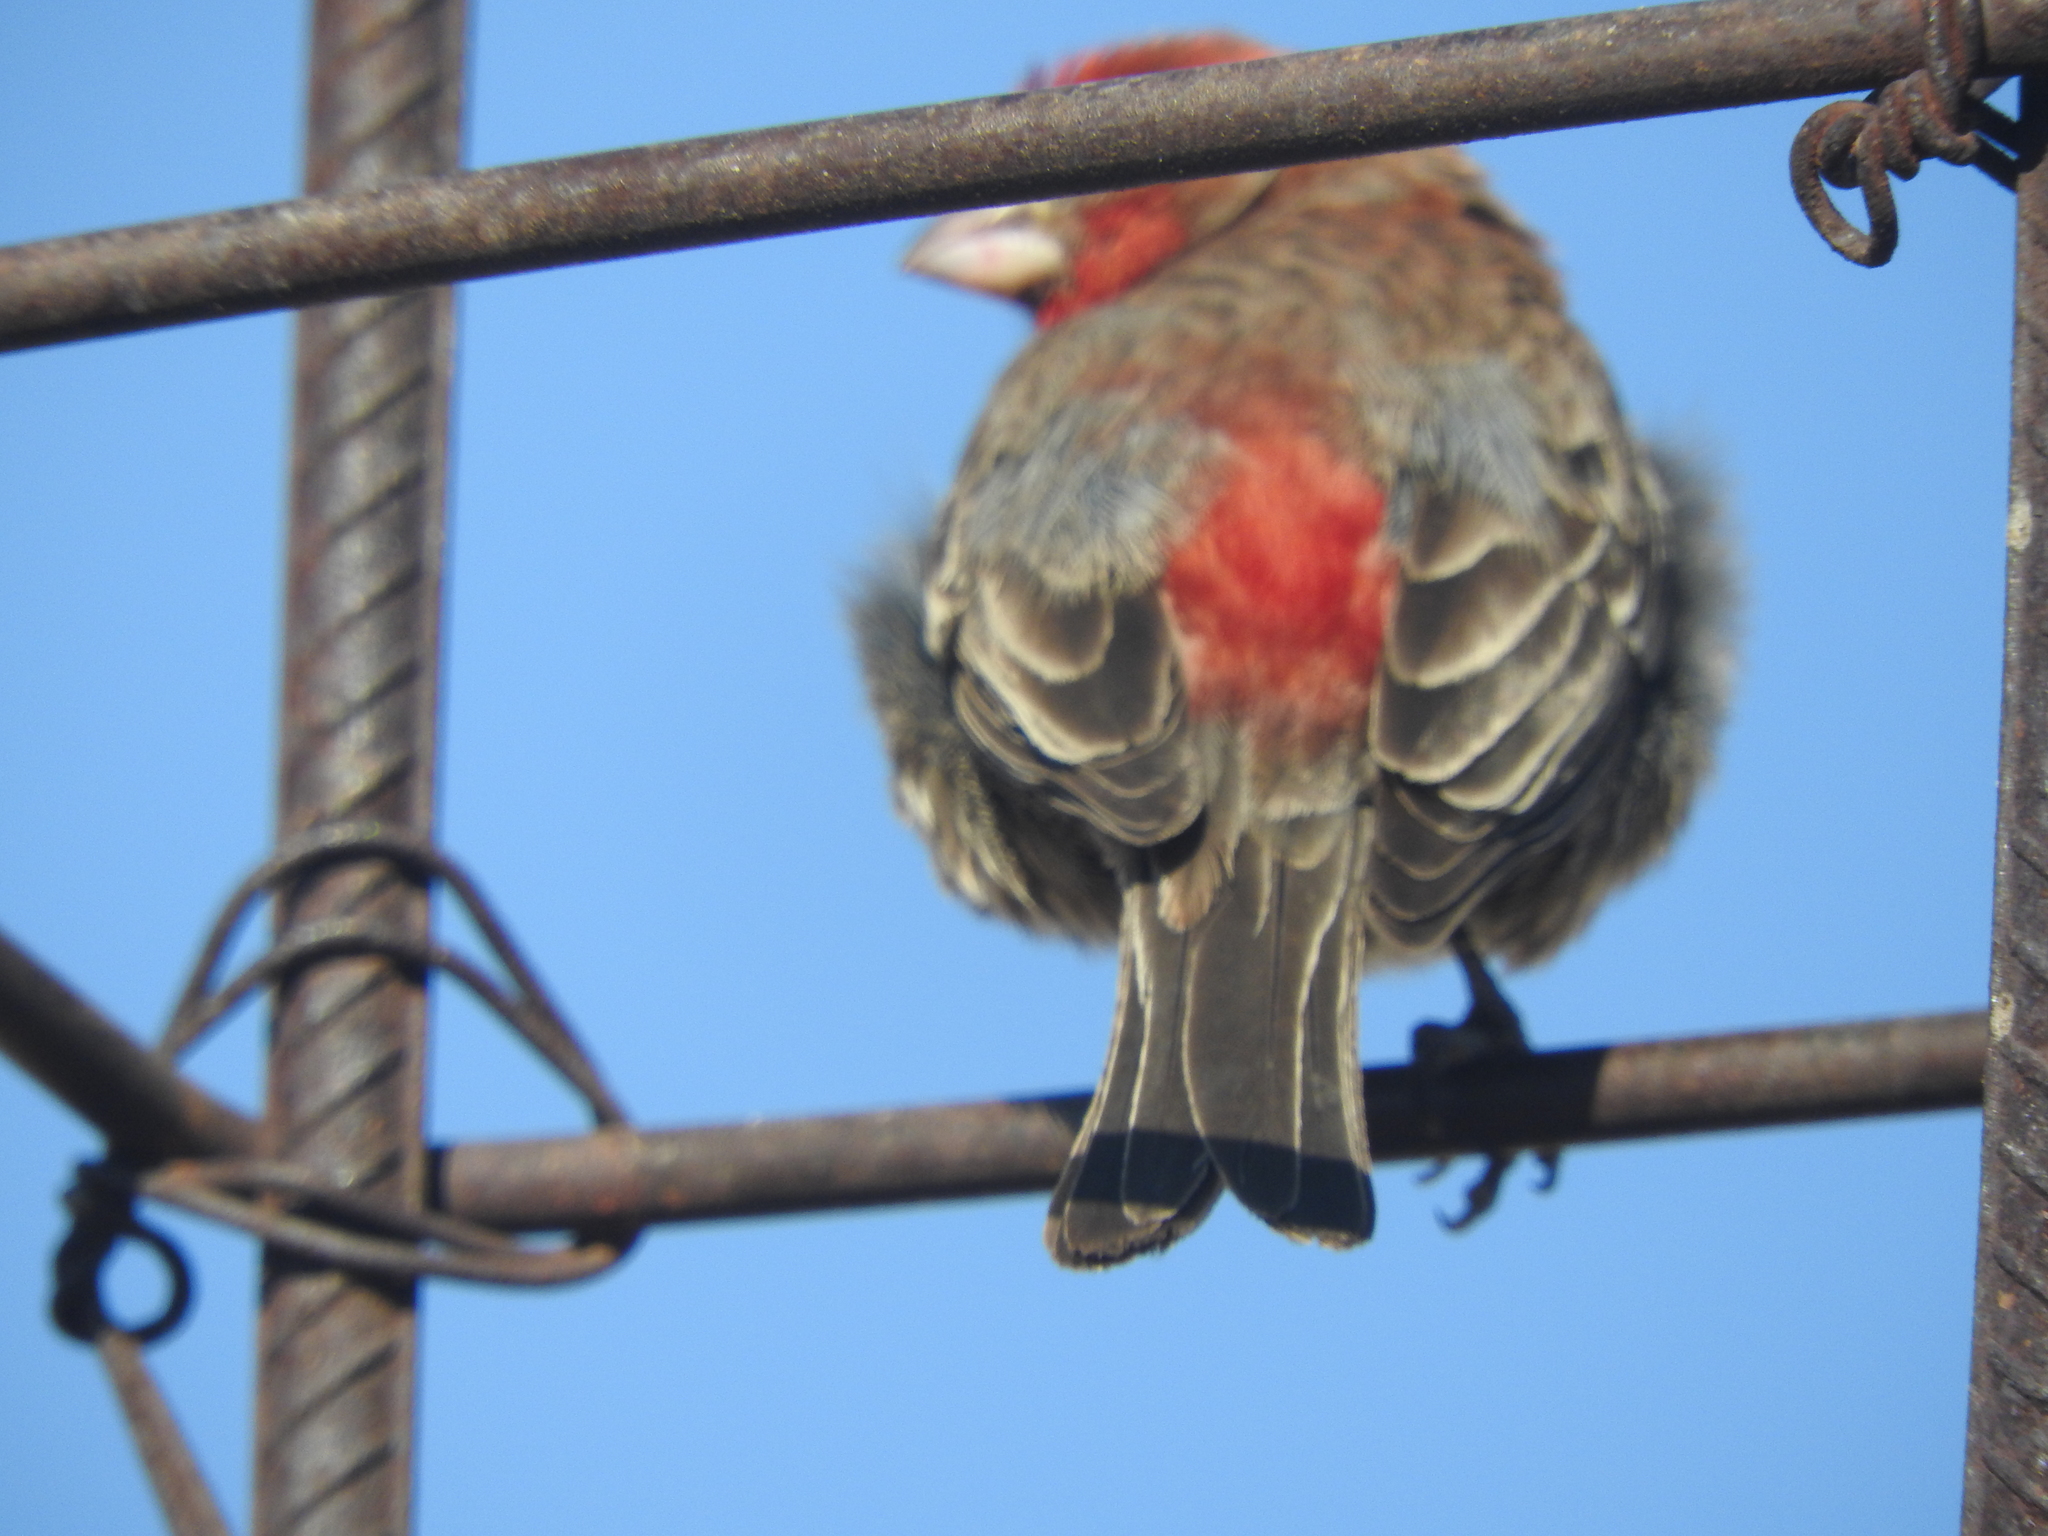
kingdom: Animalia
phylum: Chordata
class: Aves
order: Passeriformes
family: Fringillidae
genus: Haemorhous
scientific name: Haemorhous mexicanus
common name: House finch
